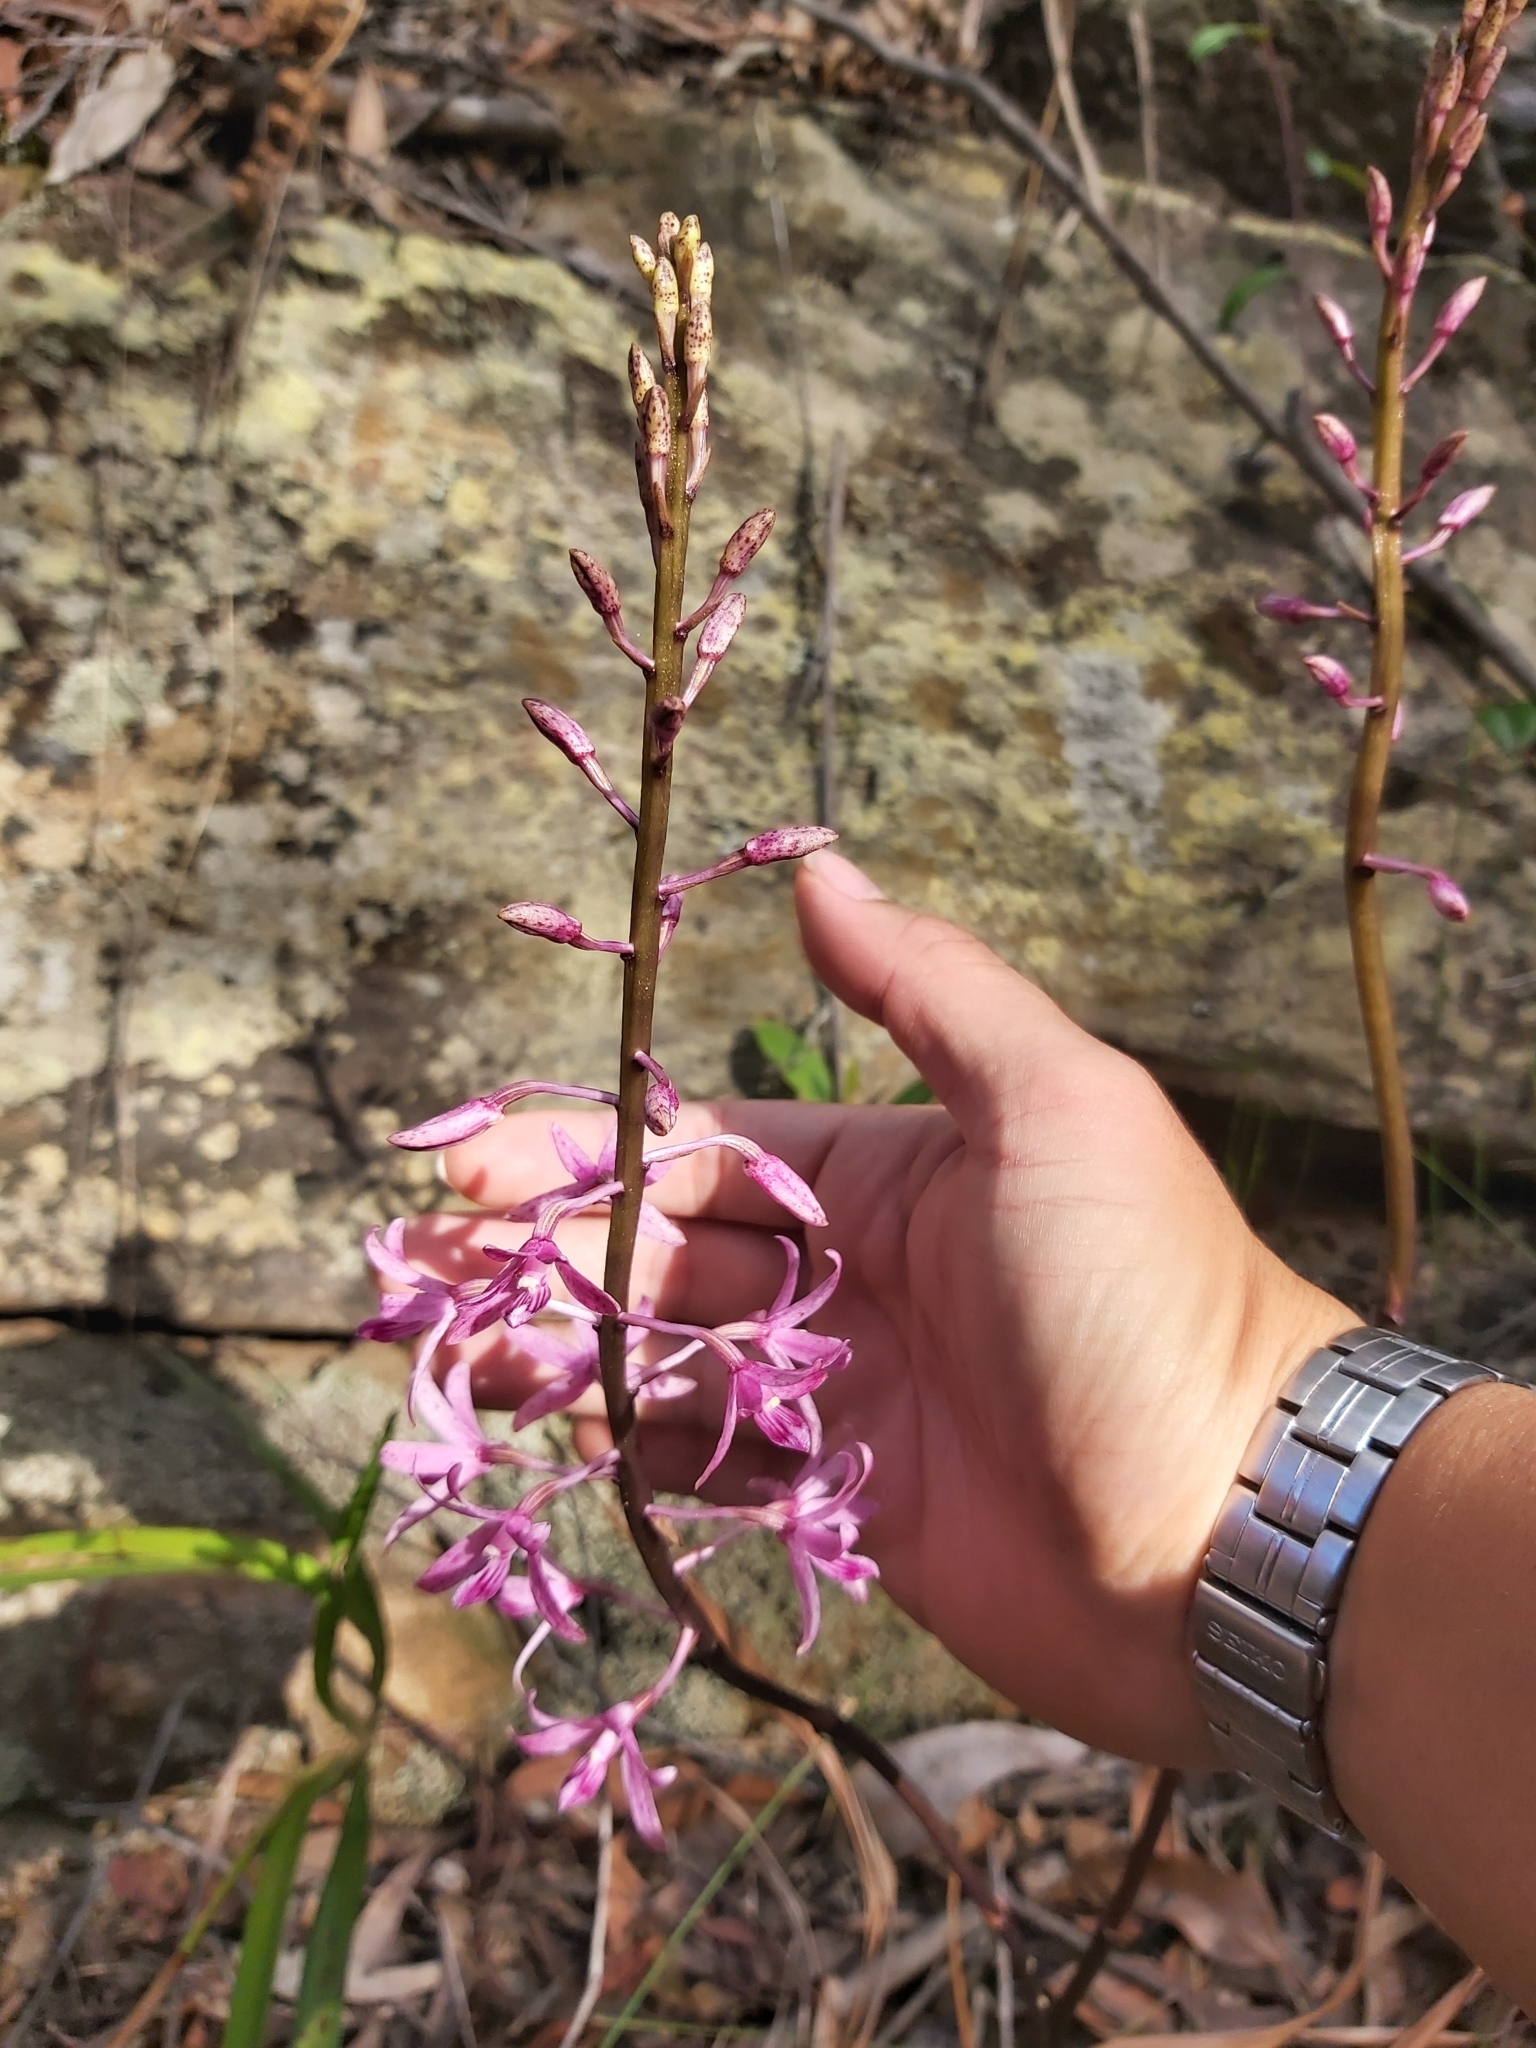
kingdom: Plantae
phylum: Tracheophyta
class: Liliopsida
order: Asparagales
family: Orchidaceae
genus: Dipodium
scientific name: Dipodium roseum
